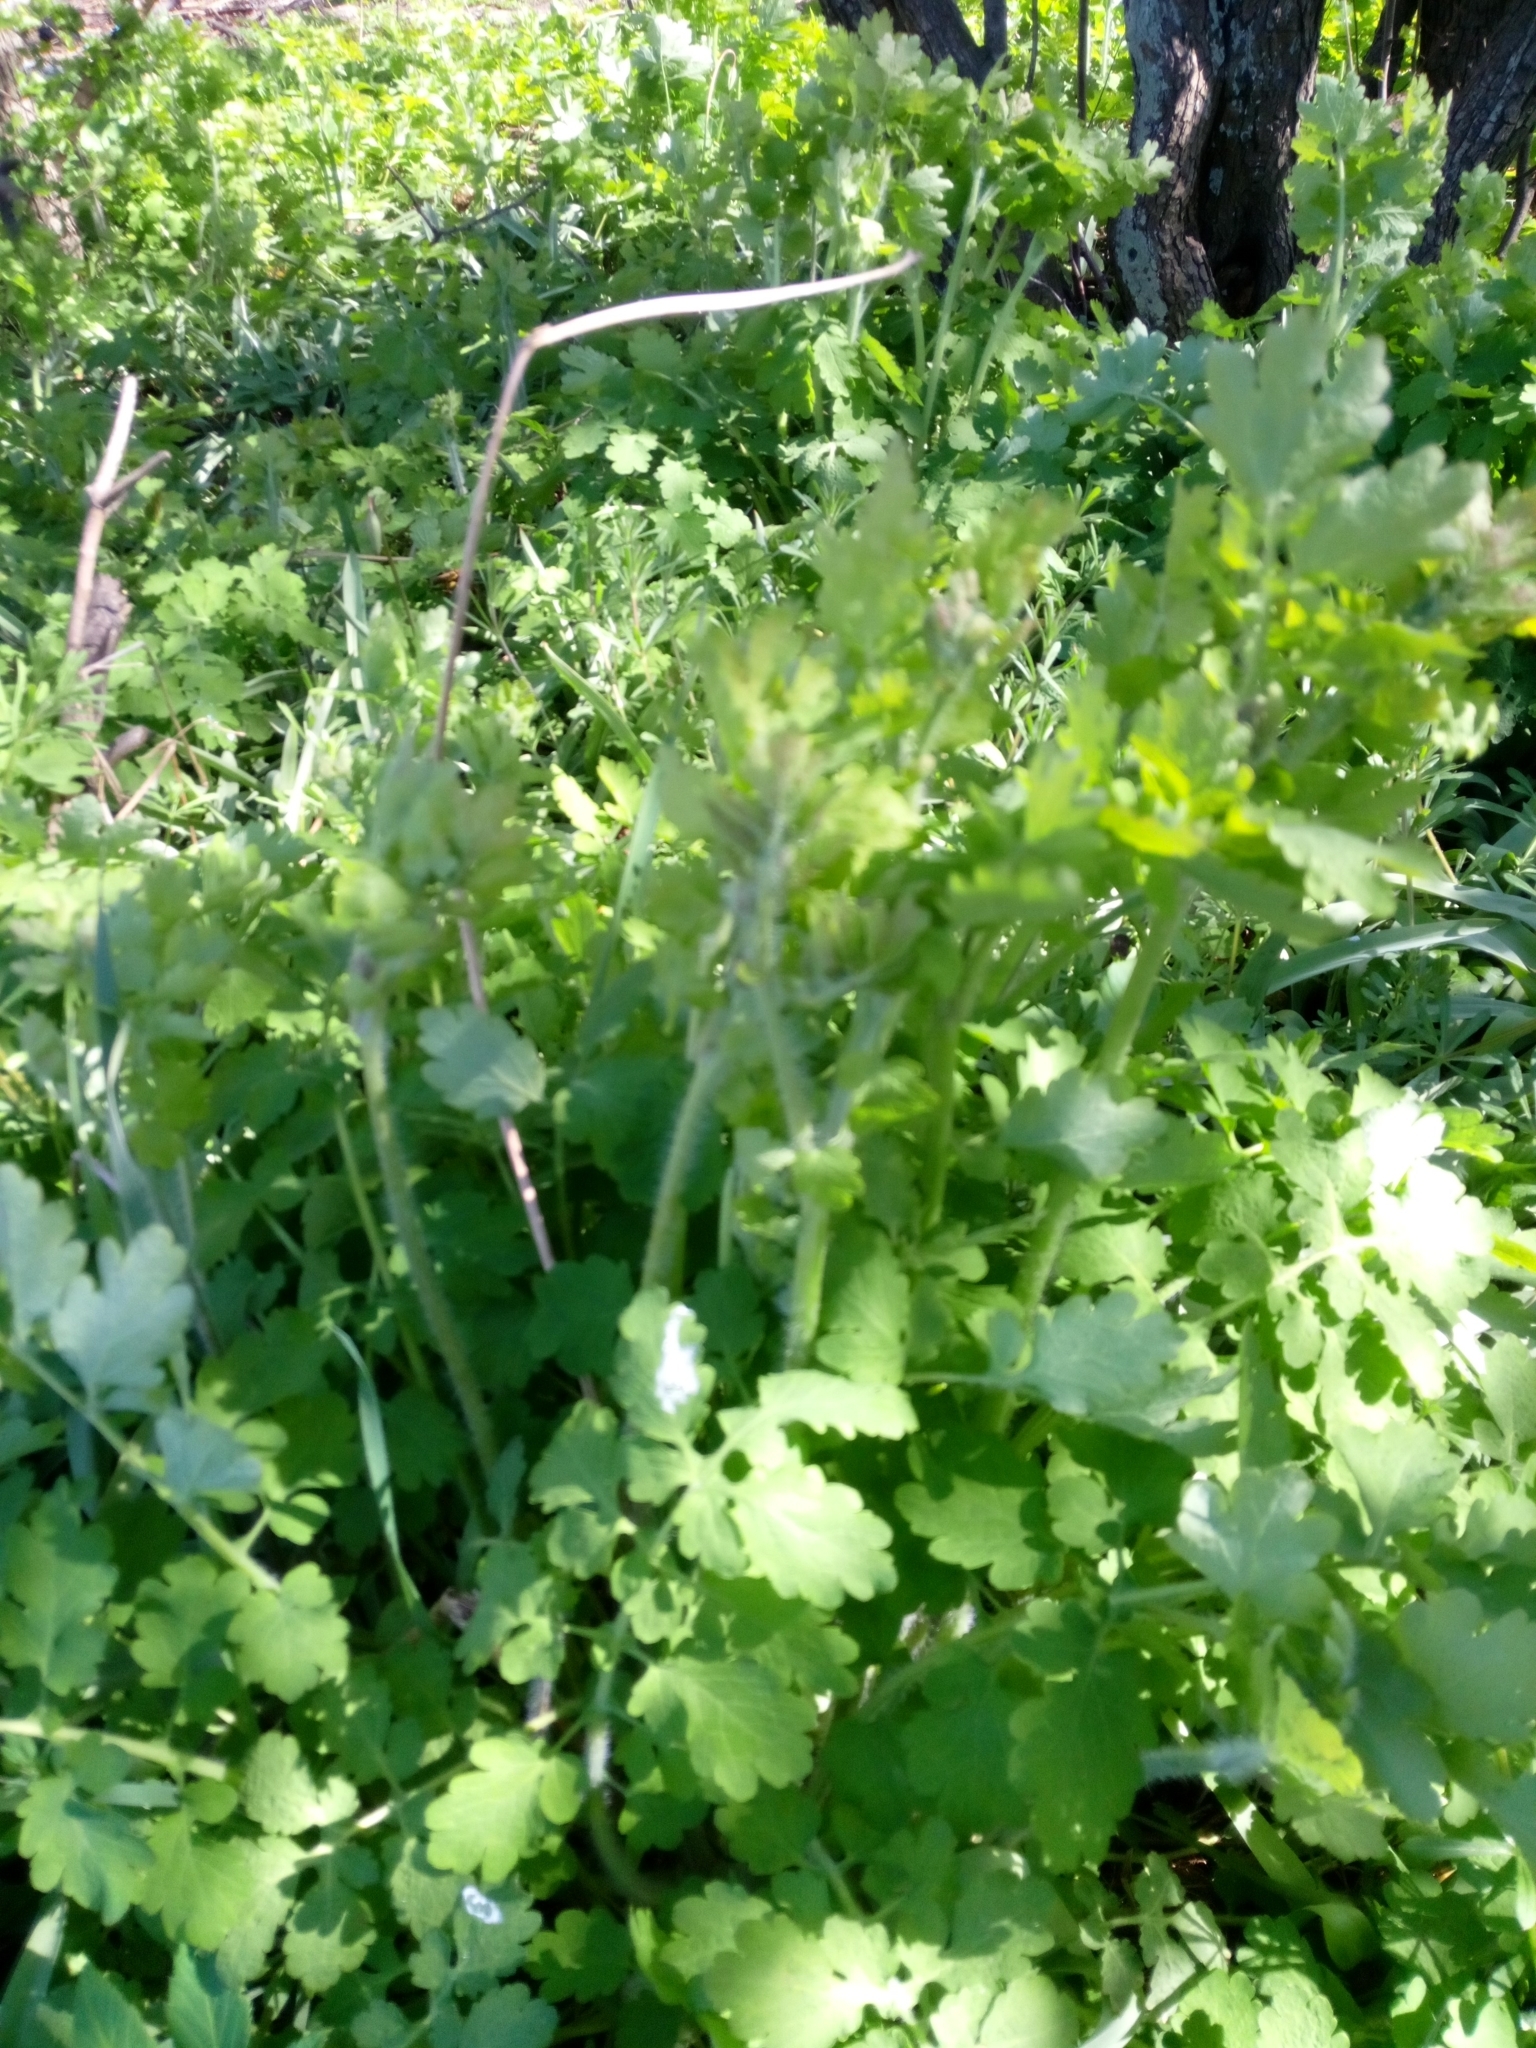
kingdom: Plantae
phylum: Tracheophyta
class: Magnoliopsida
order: Ranunculales
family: Papaveraceae
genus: Chelidonium
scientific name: Chelidonium majus
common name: Greater celandine
